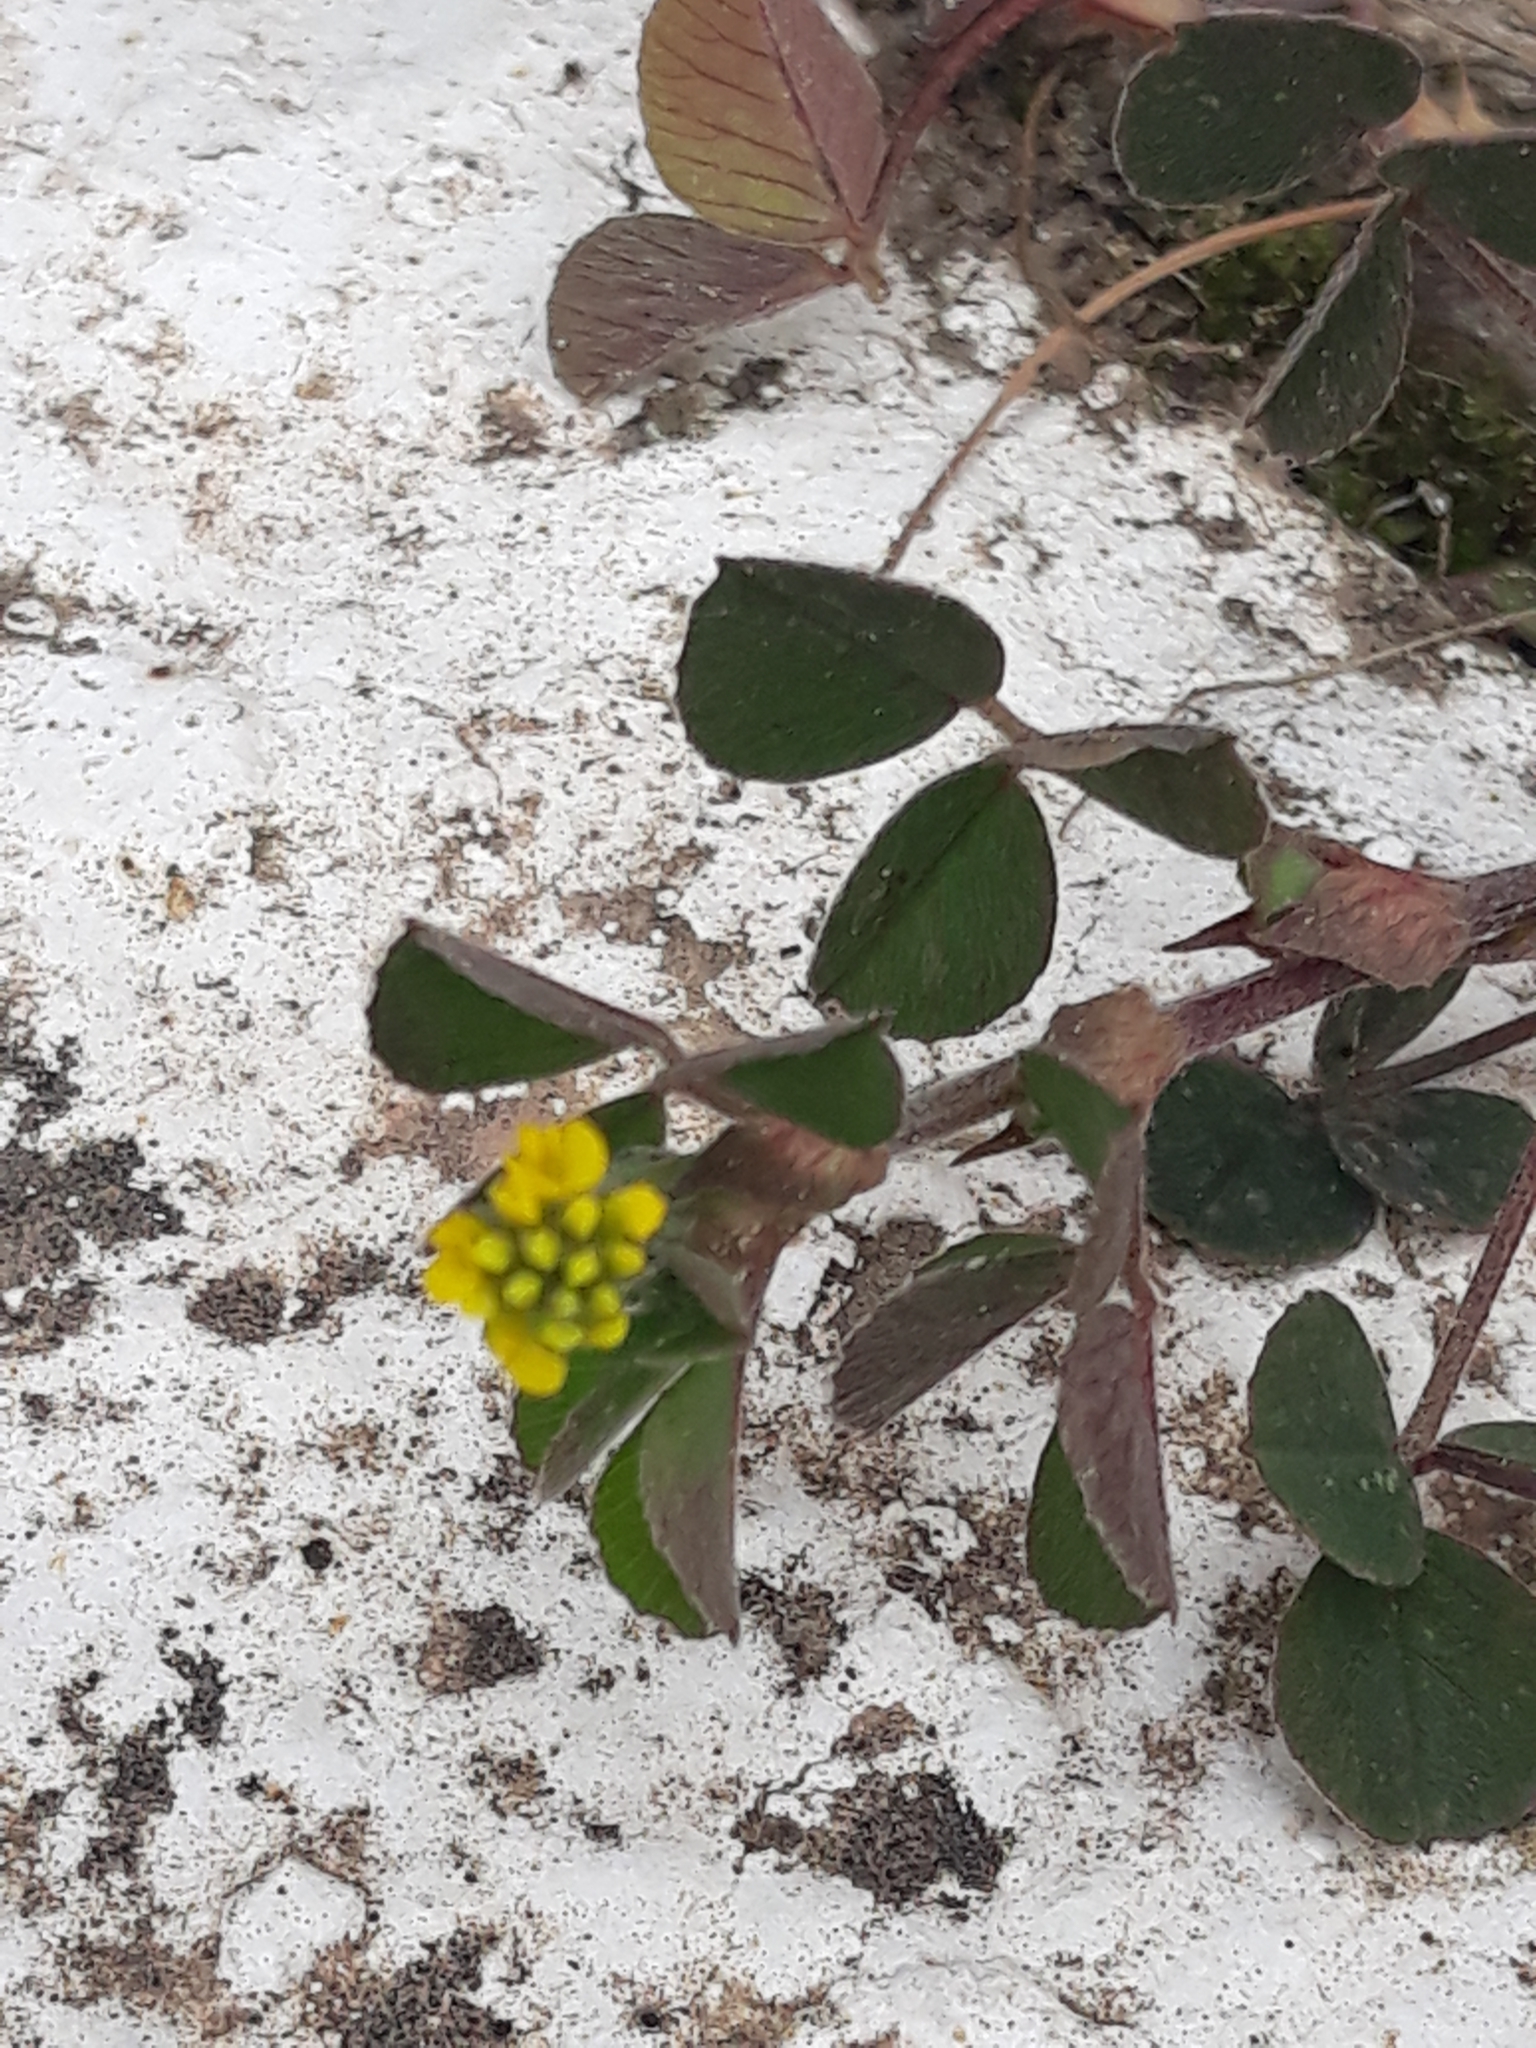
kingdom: Plantae
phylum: Tracheophyta
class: Magnoliopsida
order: Fabales
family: Fabaceae
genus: Medicago
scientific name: Medicago lupulina
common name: Black medick
